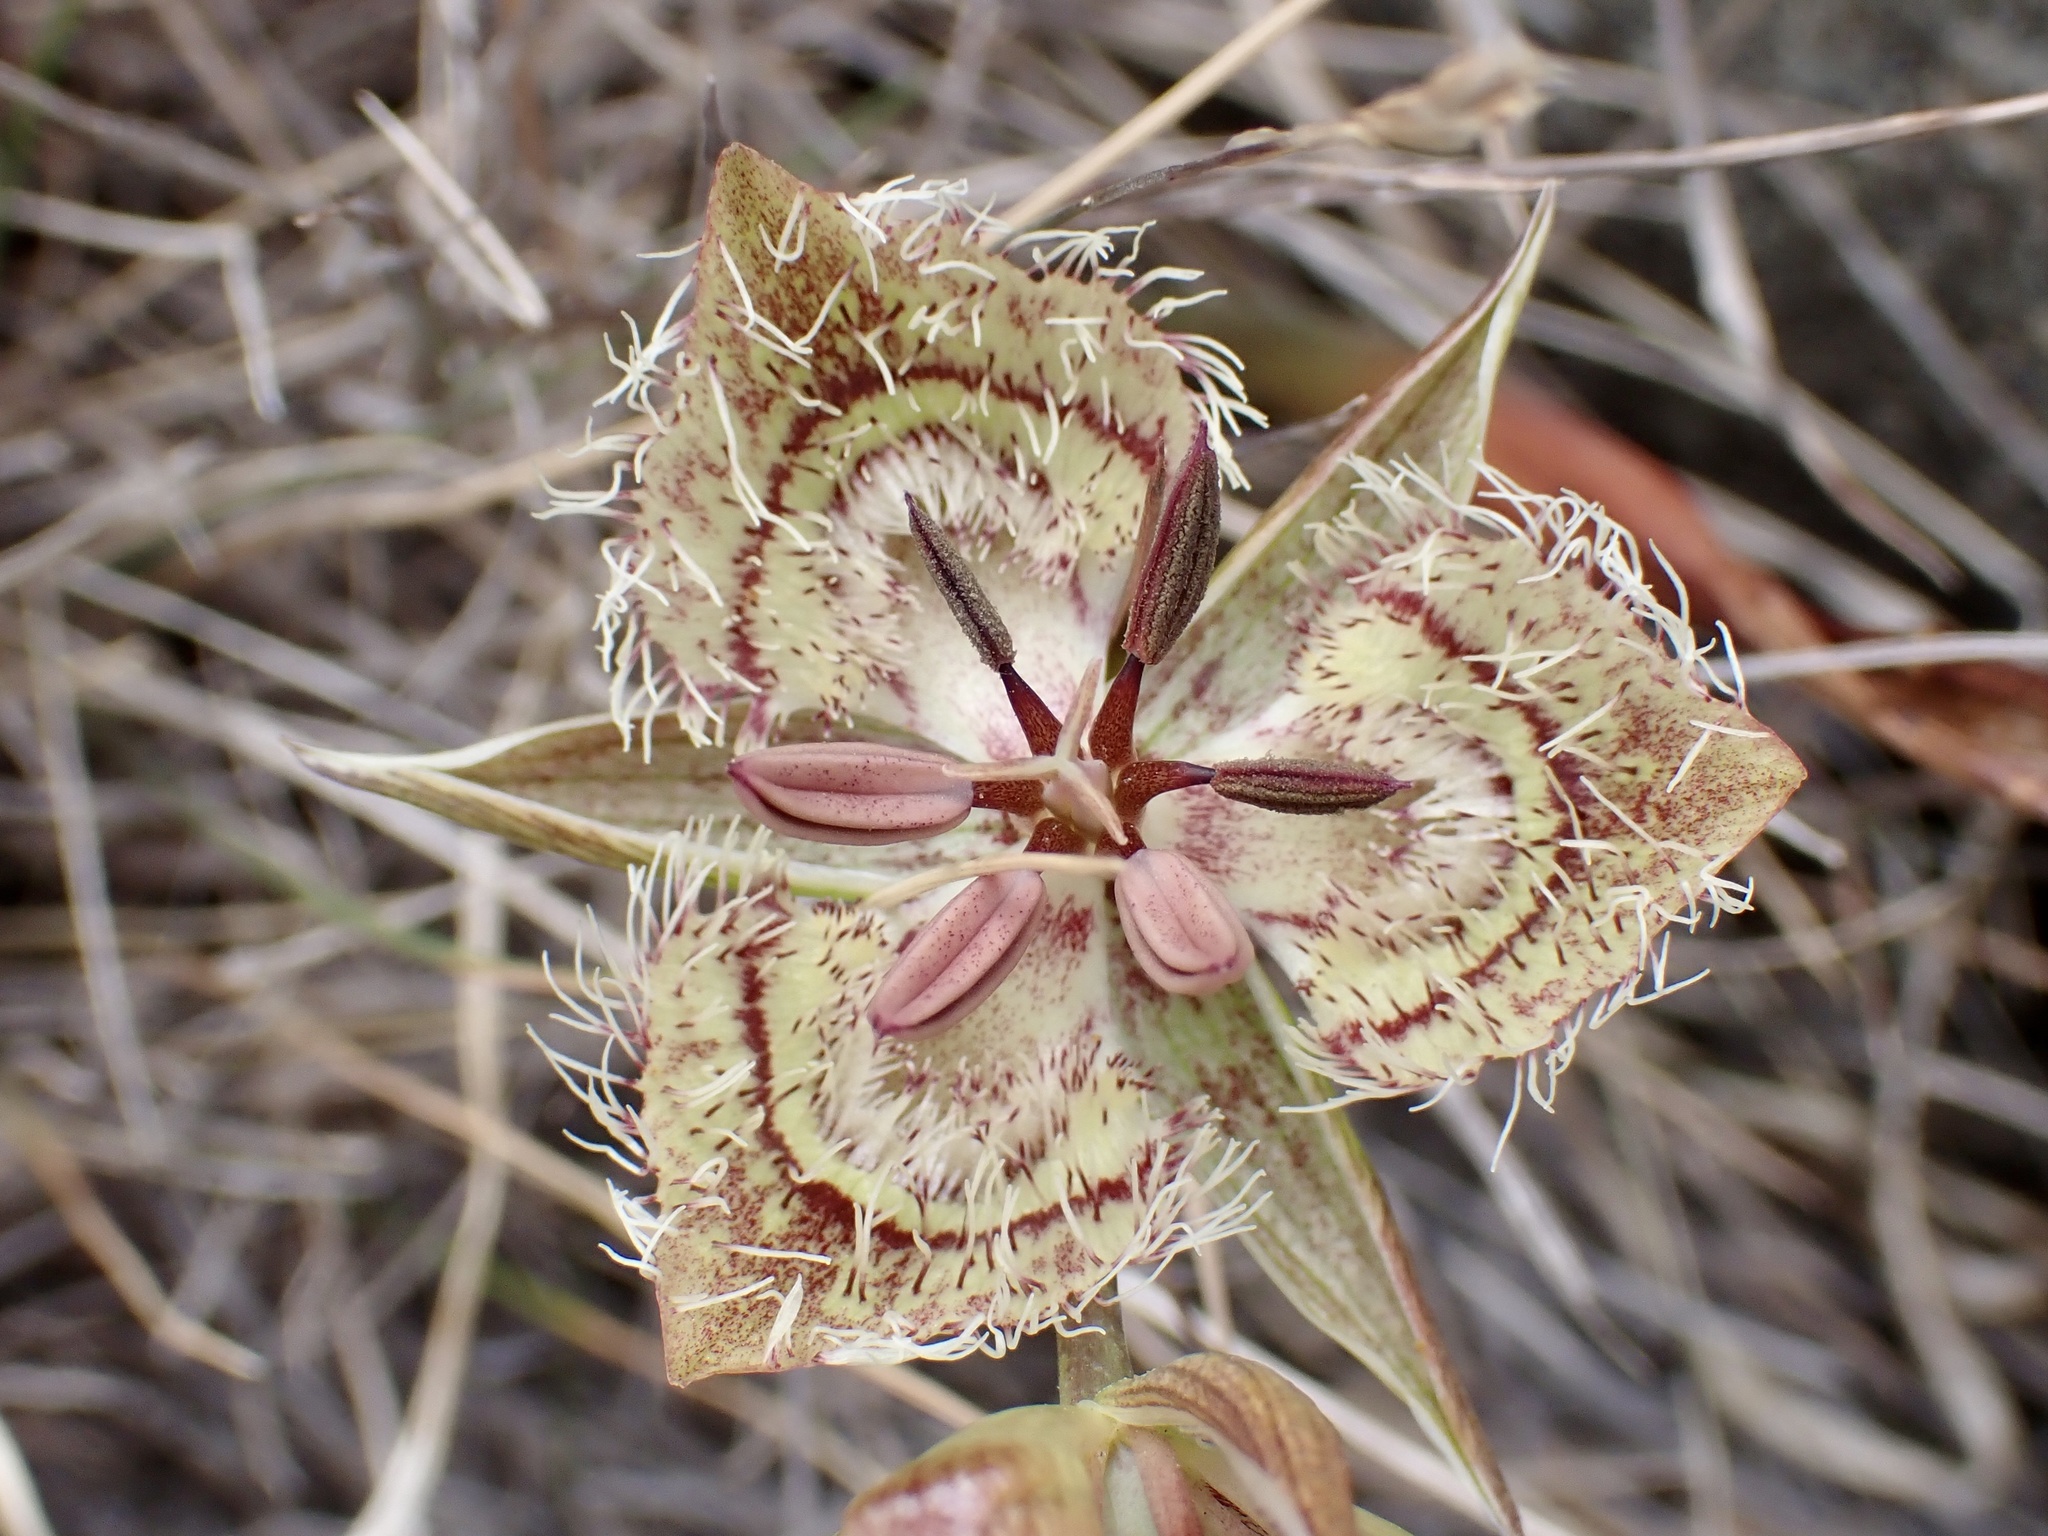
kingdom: Plantae
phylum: Tracheophyta
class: Liliopsida
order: Liliales
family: Liliaceae
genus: Calochortus
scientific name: Calochortus tiburonensis
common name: Tiburon mariposa-lily
